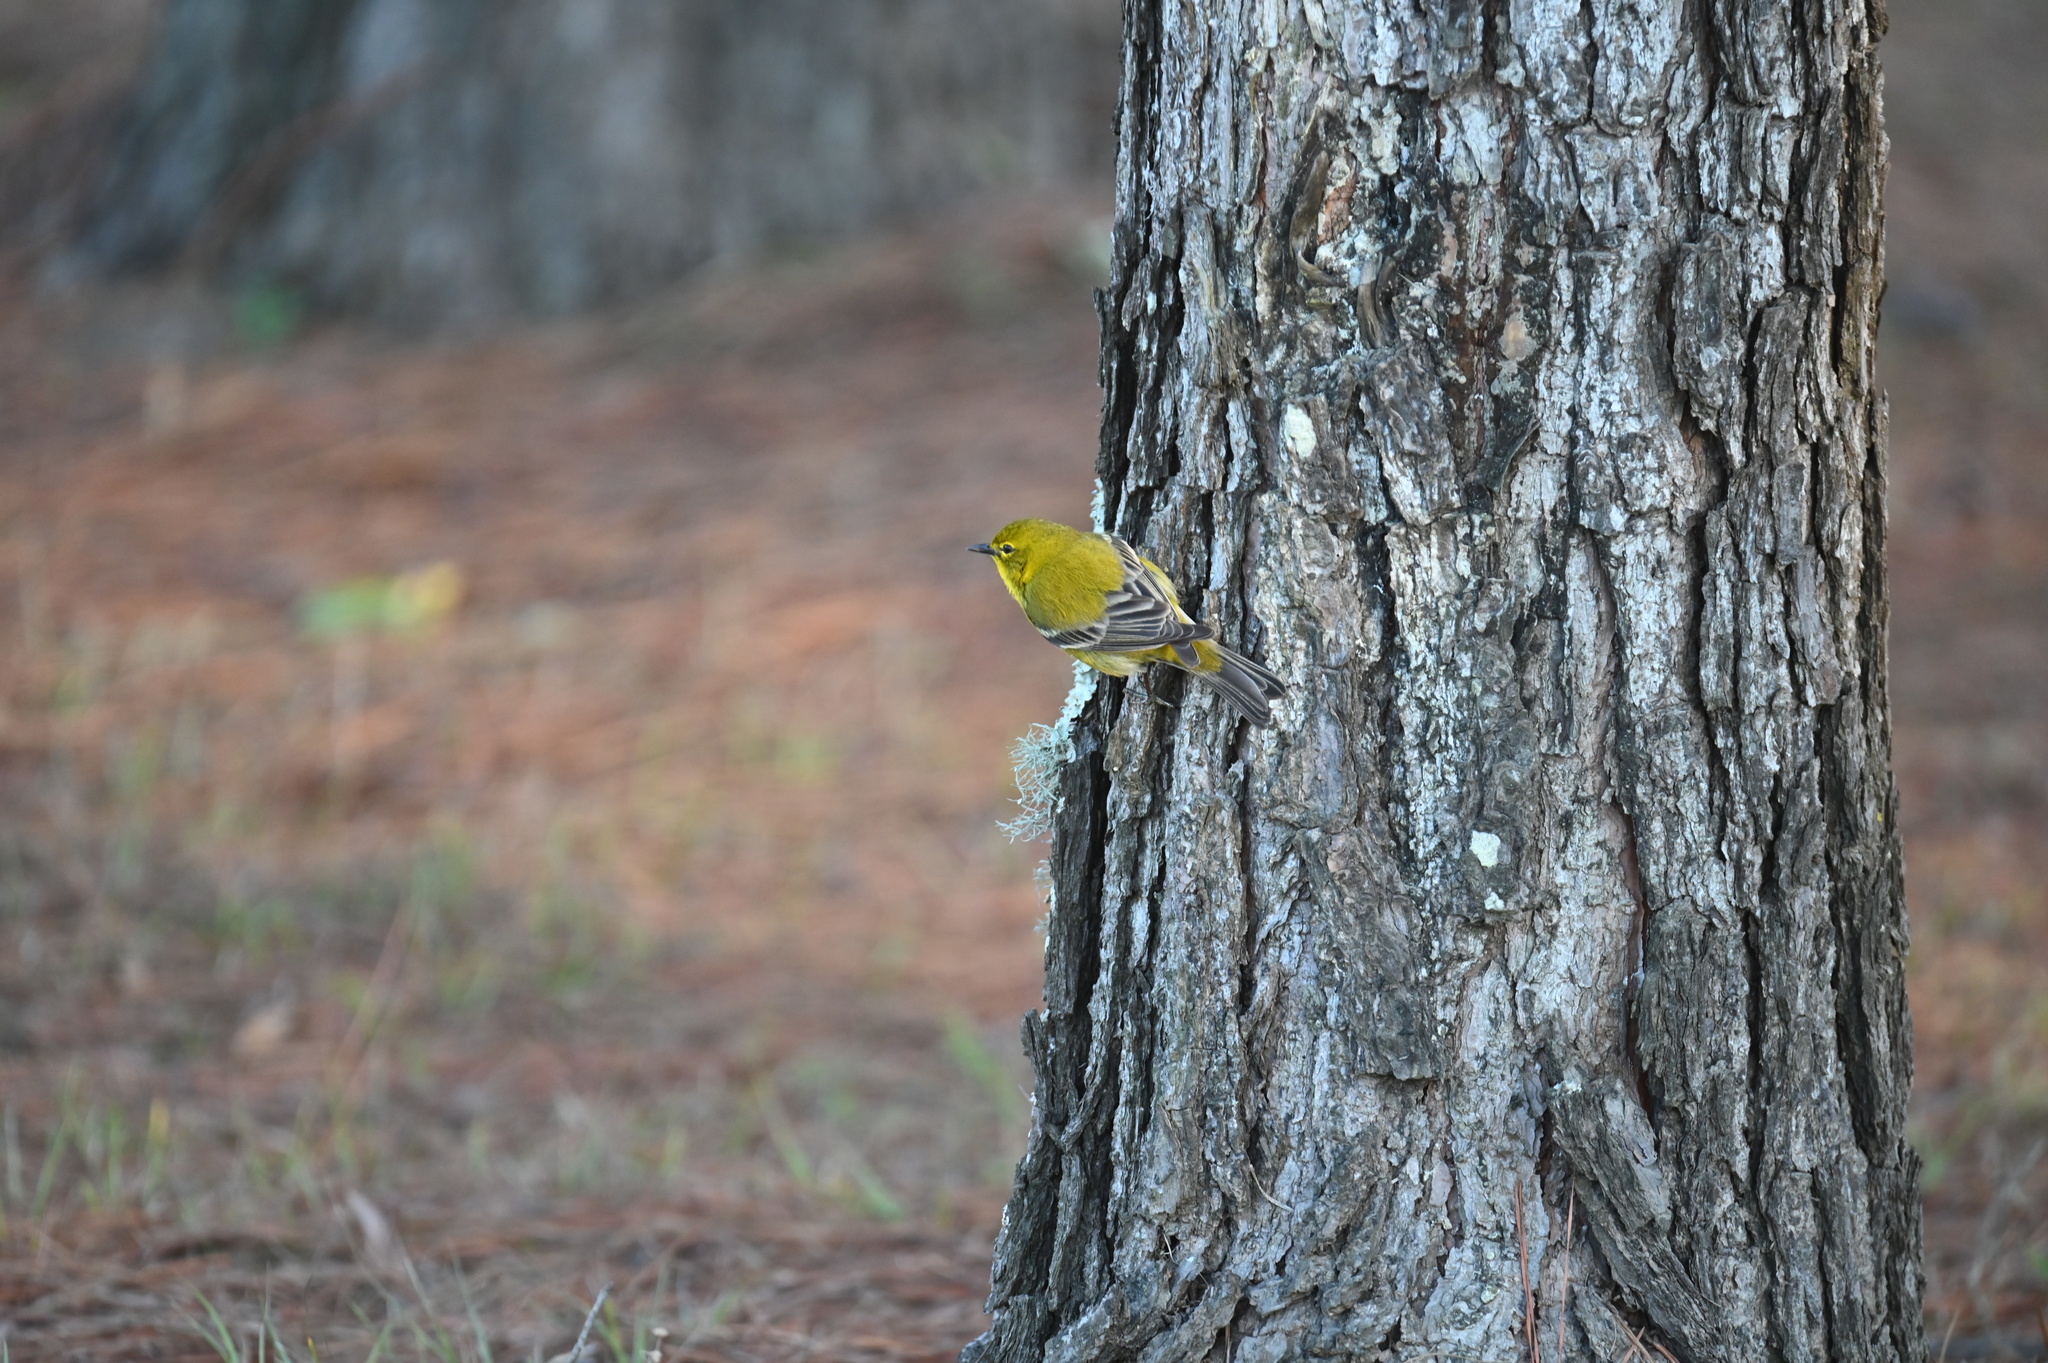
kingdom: Animalia
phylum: Chordata
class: Aves
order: Passeriformes
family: Parulidae
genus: Setophaga
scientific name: Setophaga pinus
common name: Pine warbler
